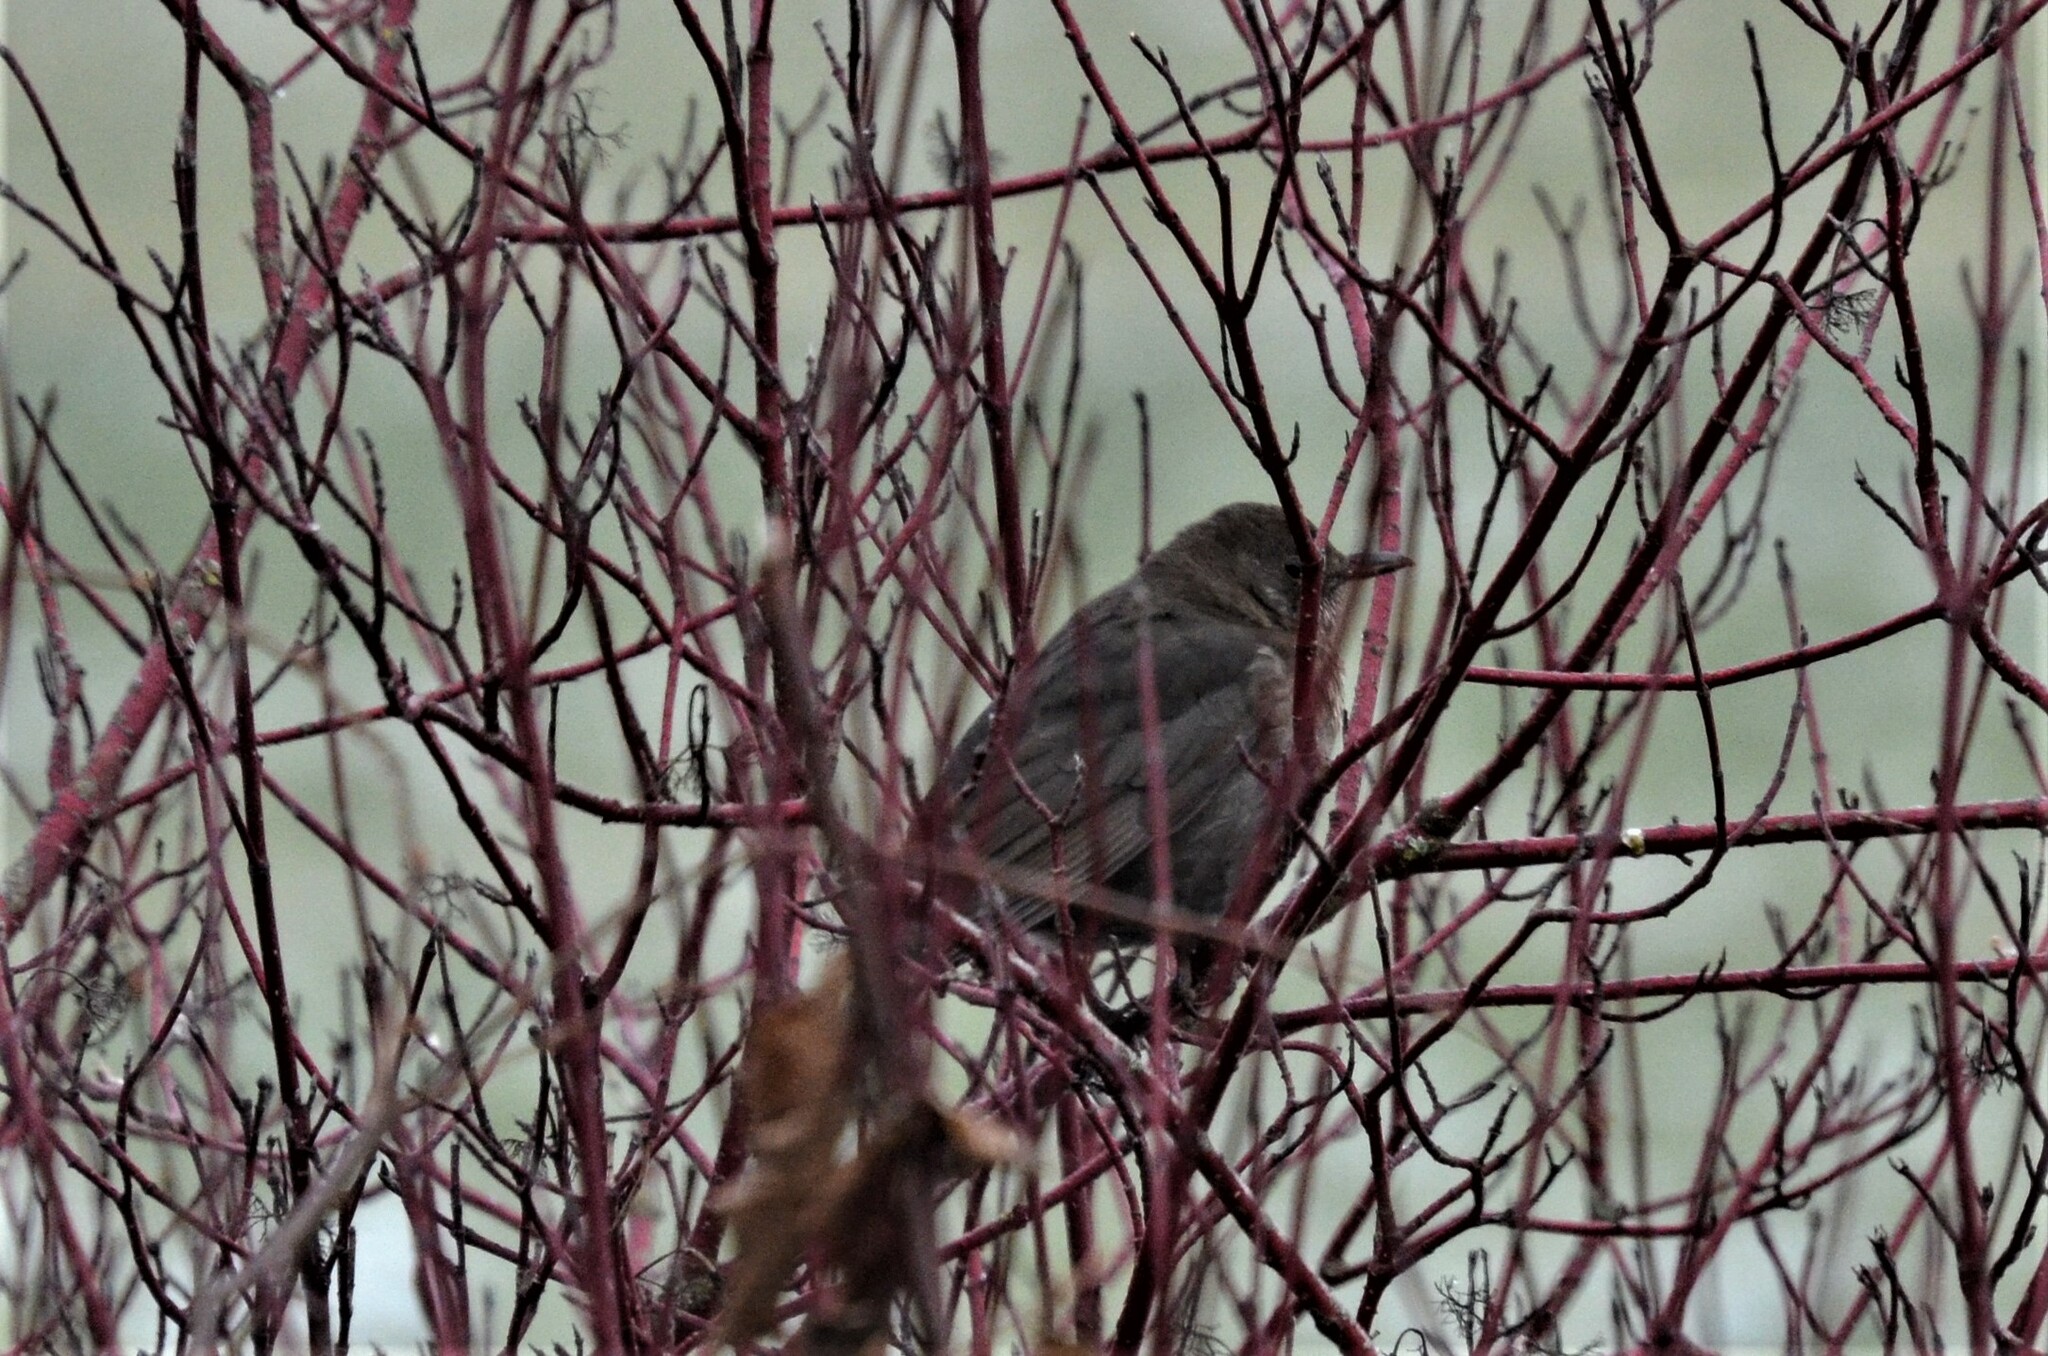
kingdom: Animalia
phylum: Chordata
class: Aves
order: Passeriformes
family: Turdidae
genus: Turdus
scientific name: Turdus merula
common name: Common blackbird
